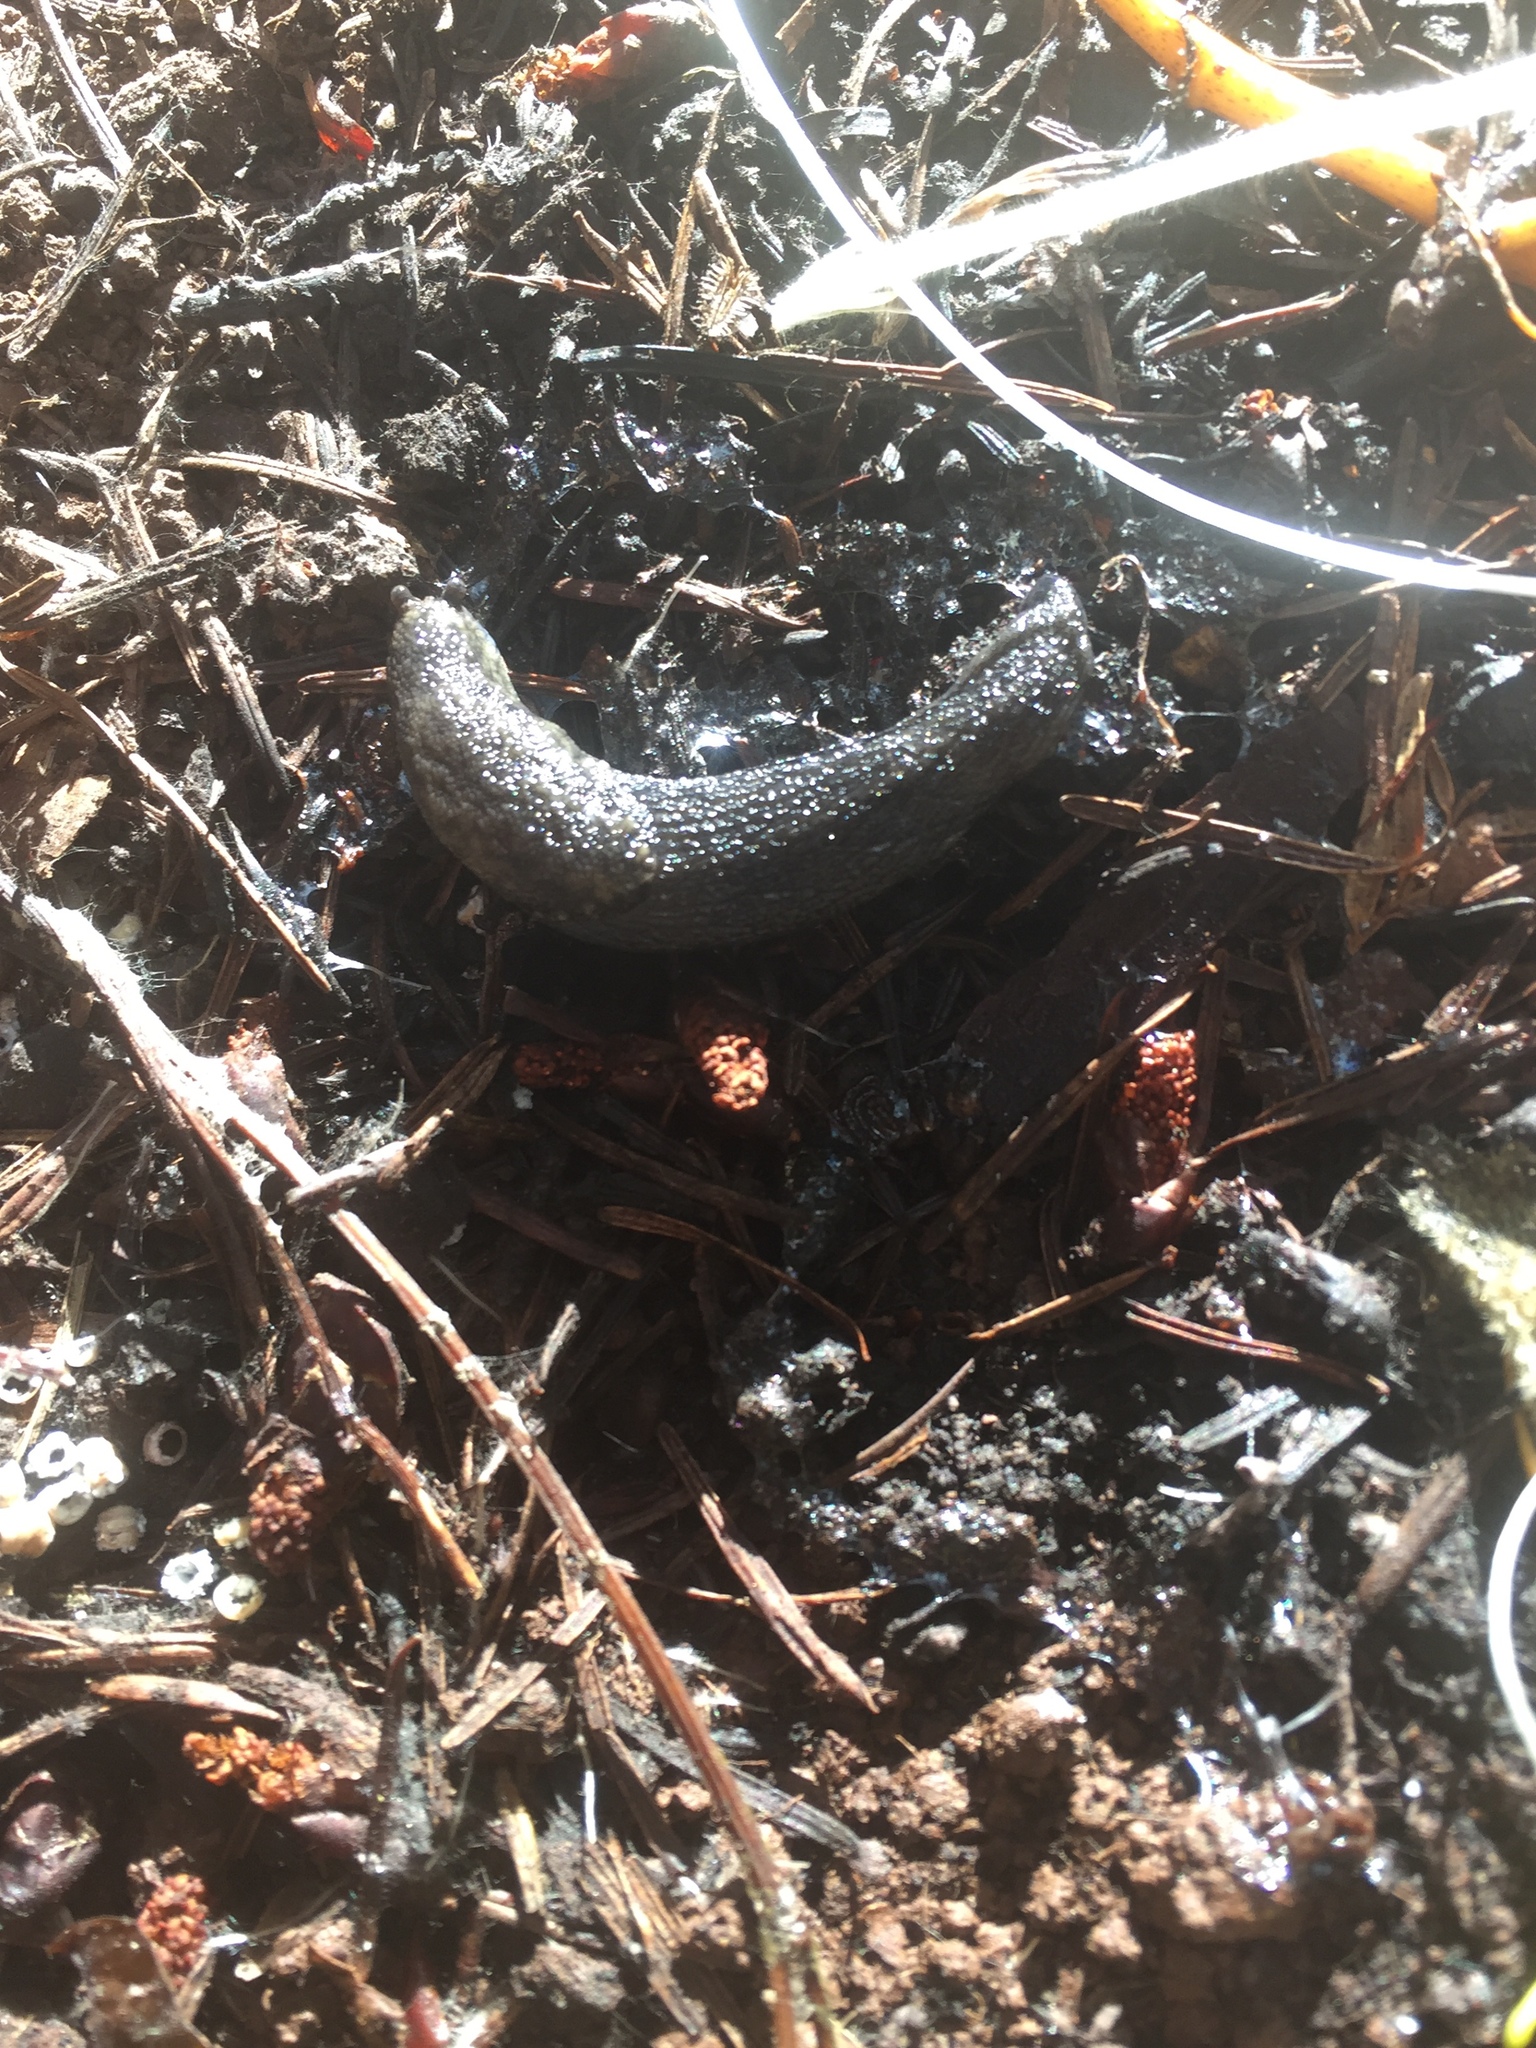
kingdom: Animalia
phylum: Mollusca
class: Gastropoda
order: Stylommatophora
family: Ariolimacidae
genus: Prophysaon
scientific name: Prophysaon andersonii
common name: Reticulate taildropper
